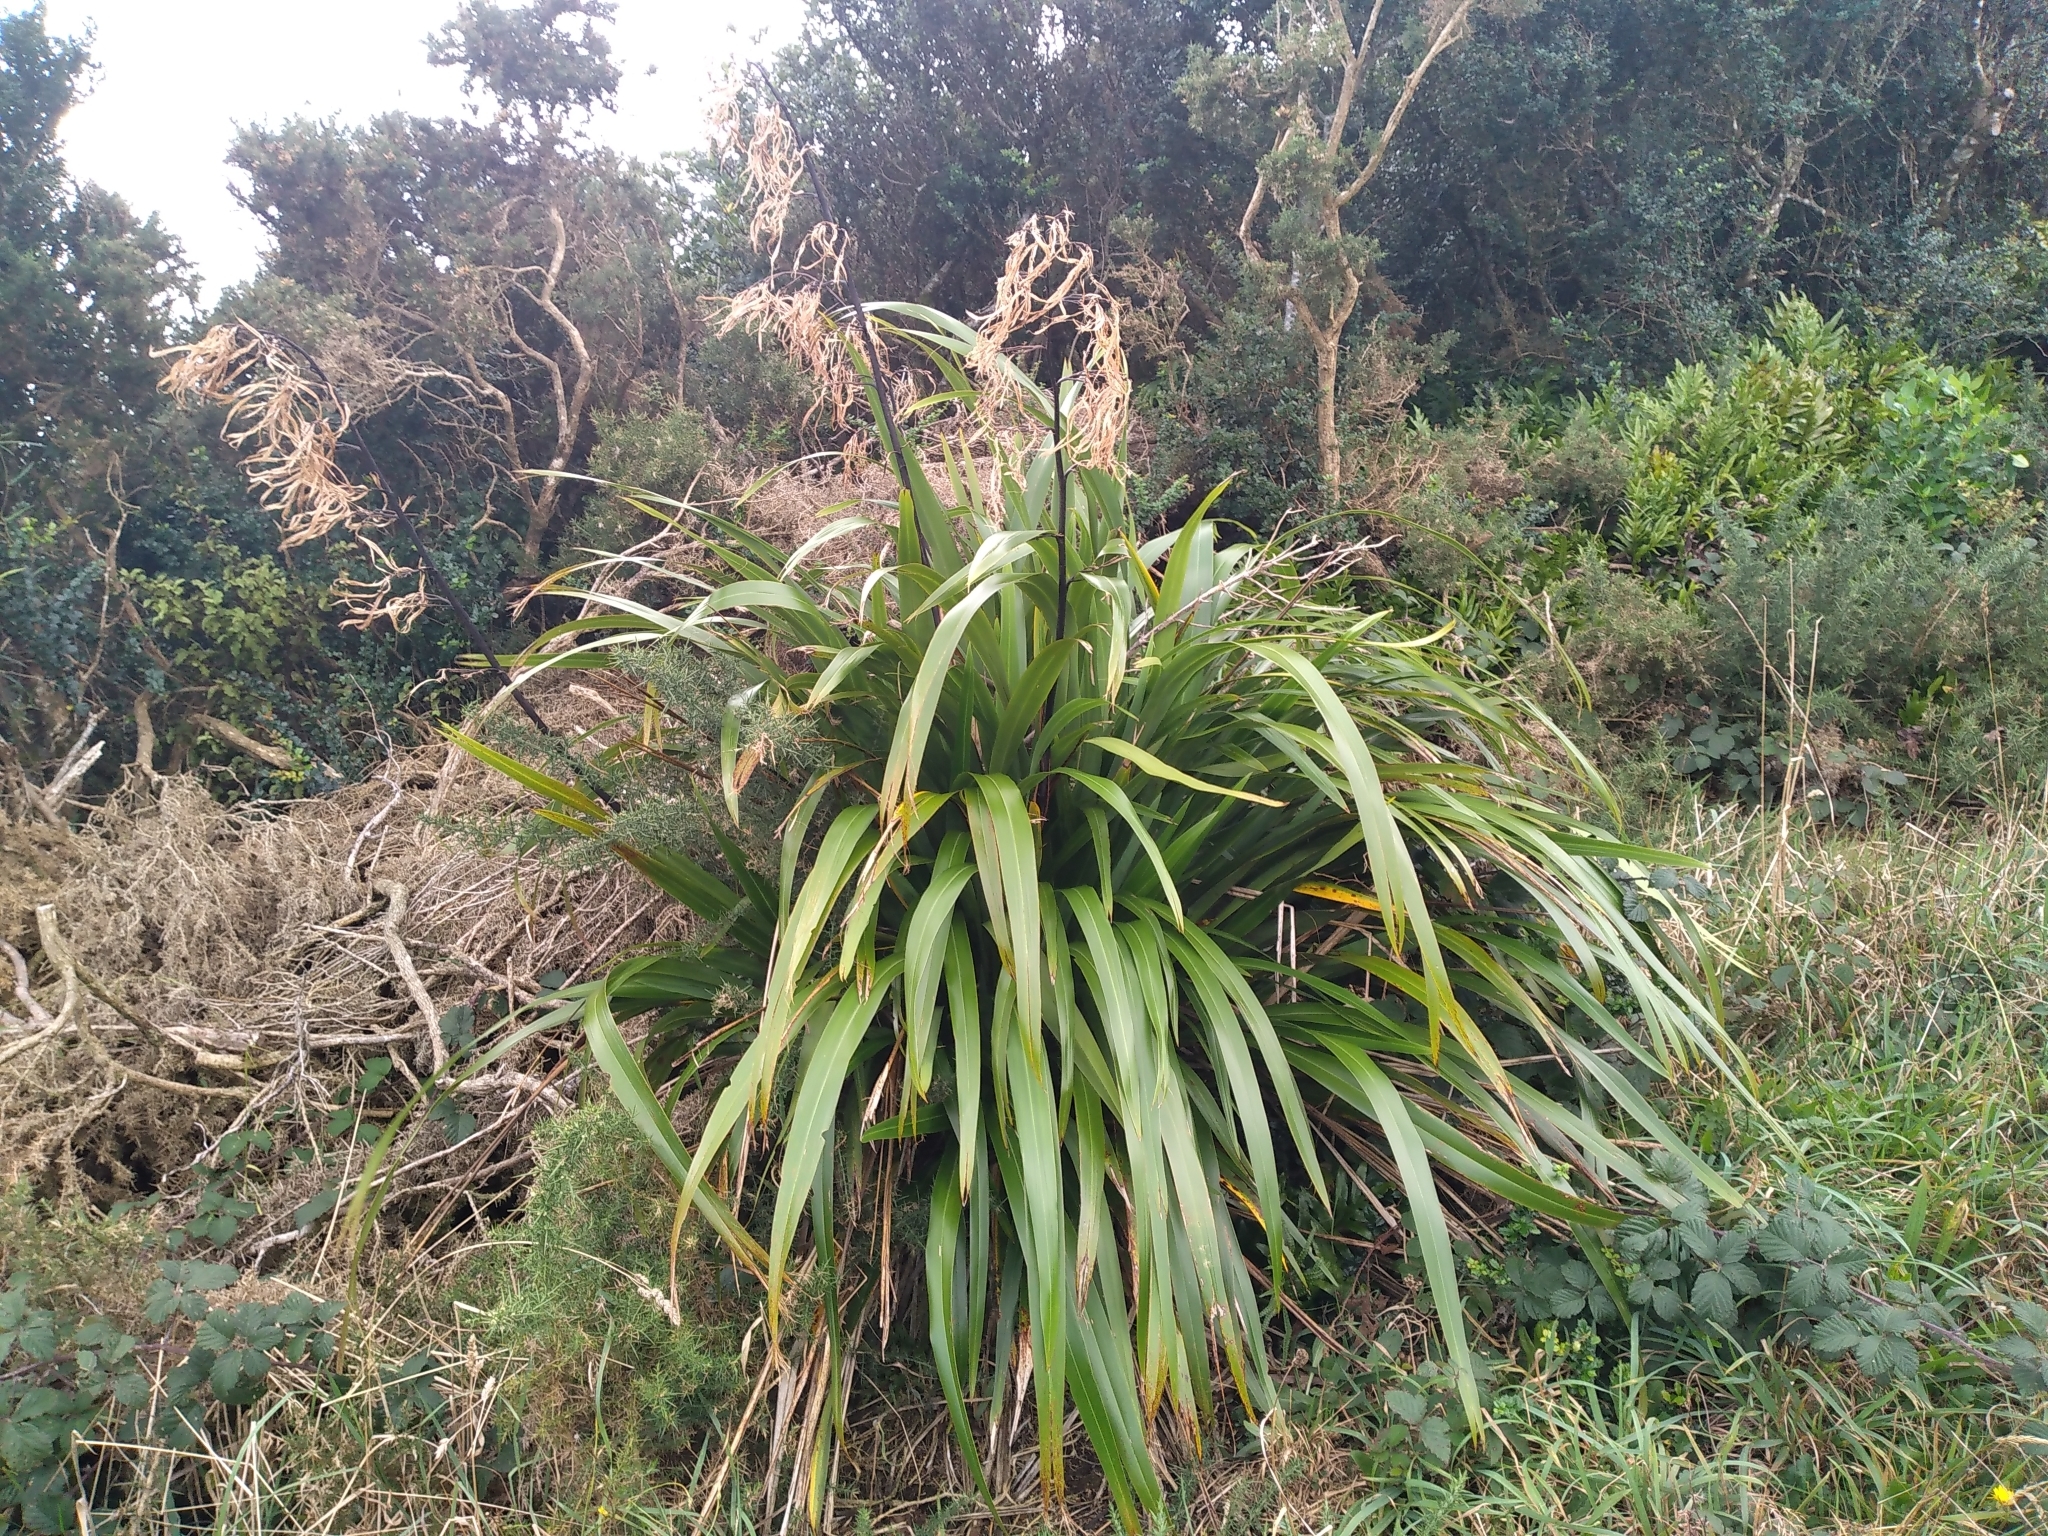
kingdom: Plantae
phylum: Tracheophyta
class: Liliopsida
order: Asparagales
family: Asphodelaceae
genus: Phormium
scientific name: Phormium colensoi
